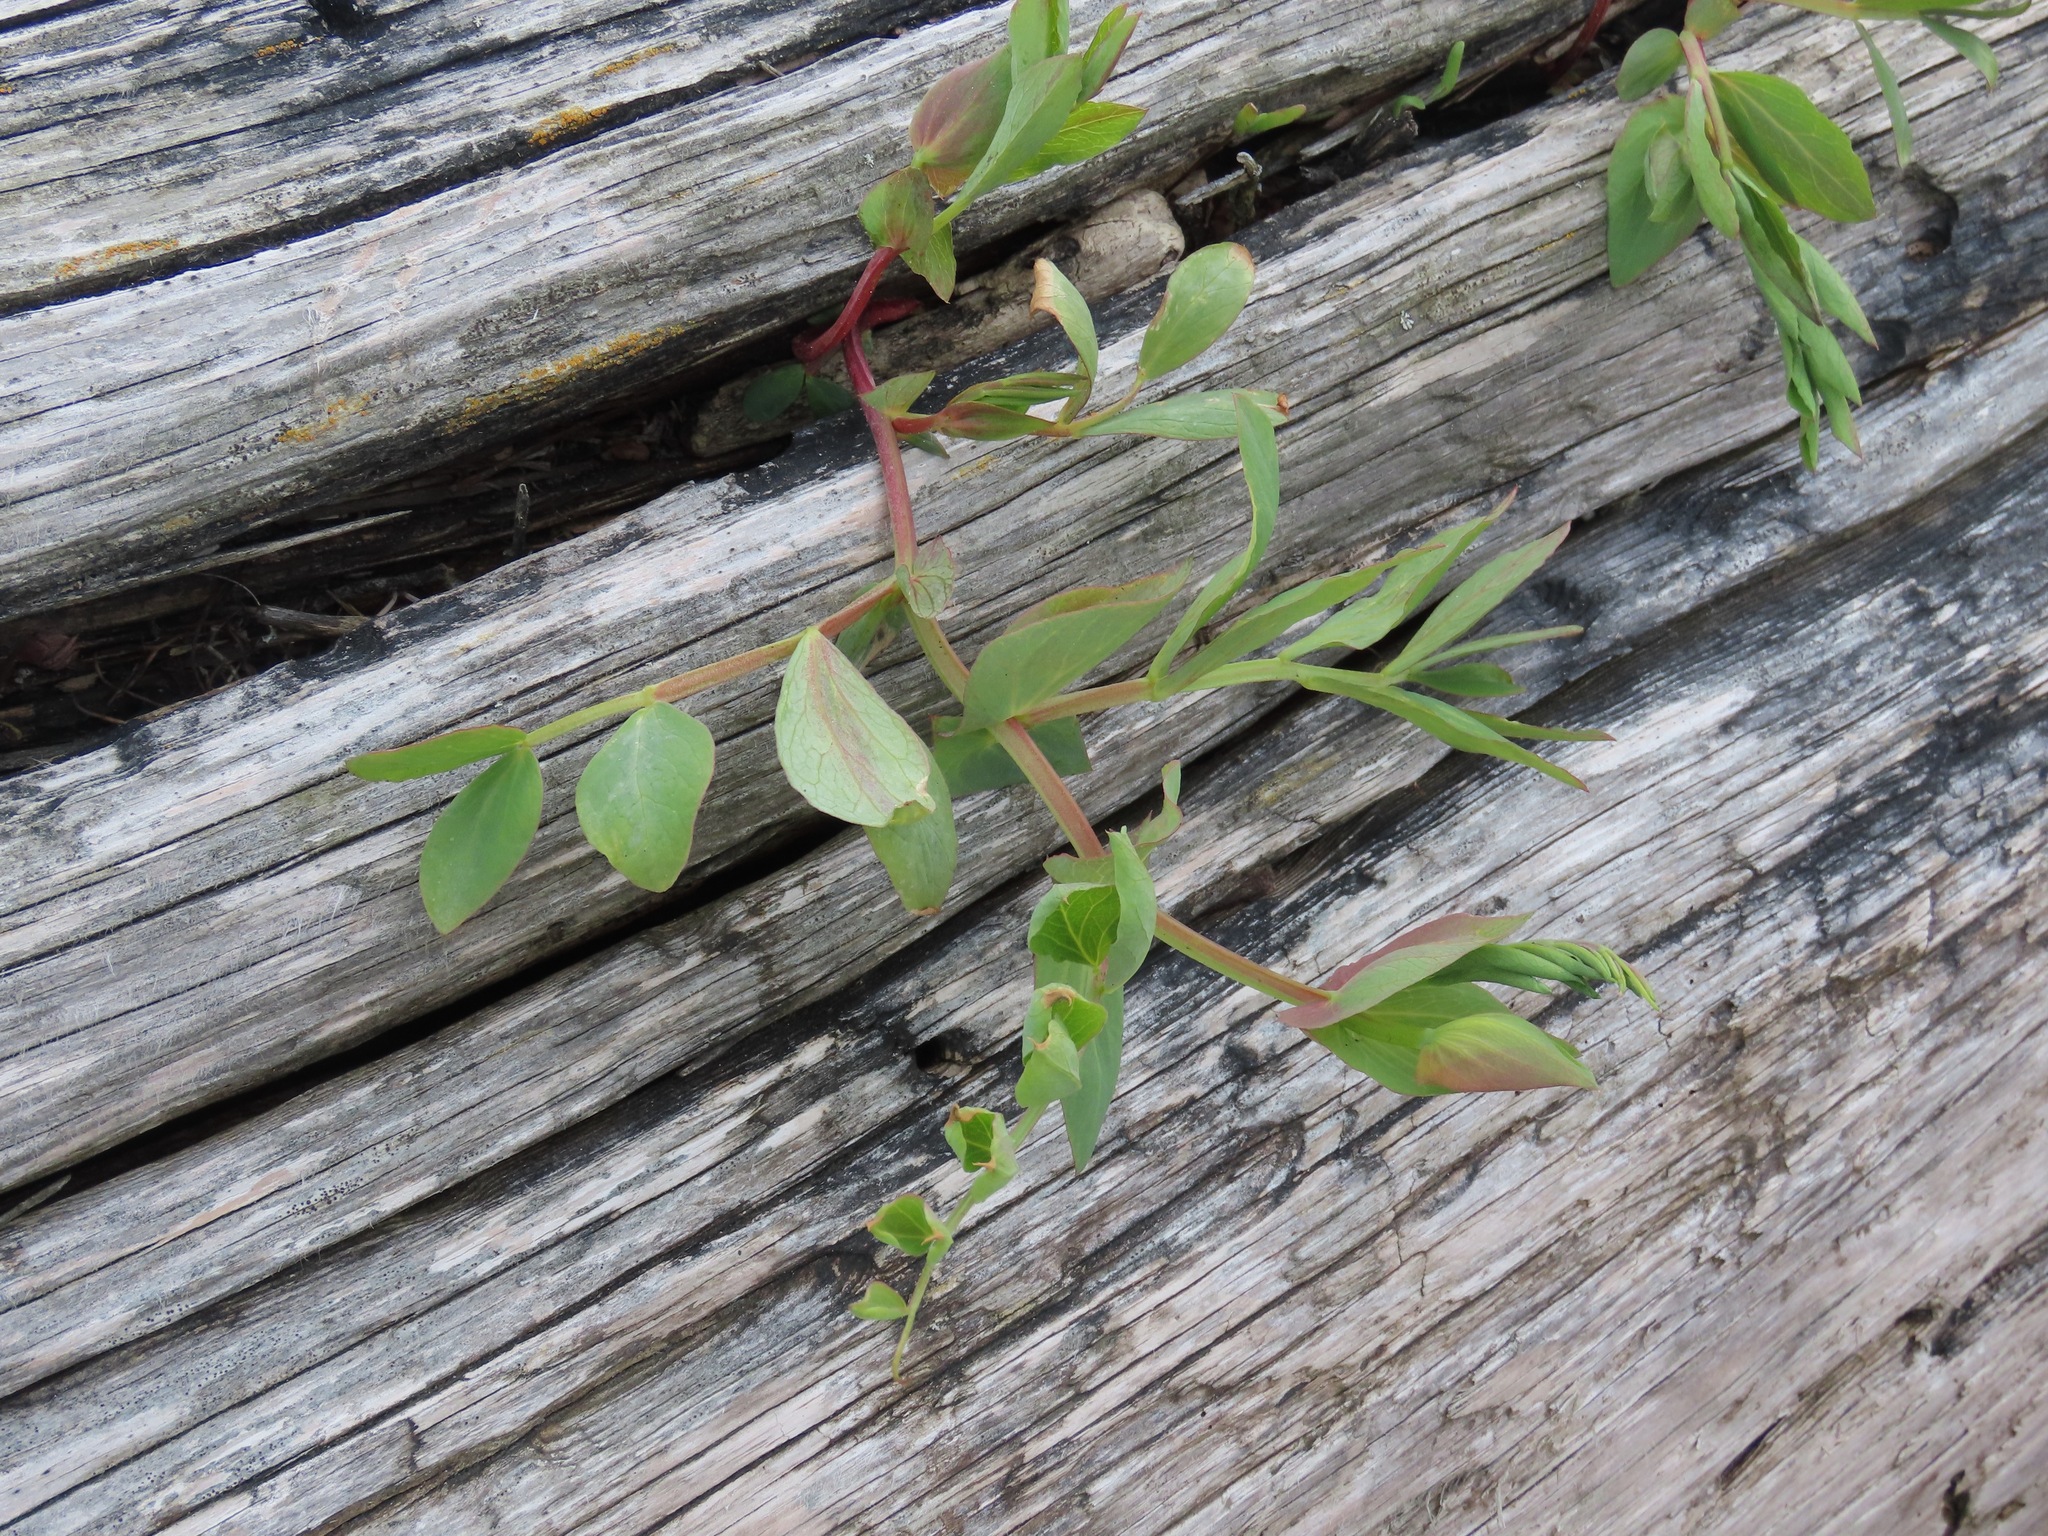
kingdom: Plantae
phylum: Tracheophyta
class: Magnoliopsida
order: Fabales
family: Fabaceae
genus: Lathyrus
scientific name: Lathyrus japonicus
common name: Sea pea
